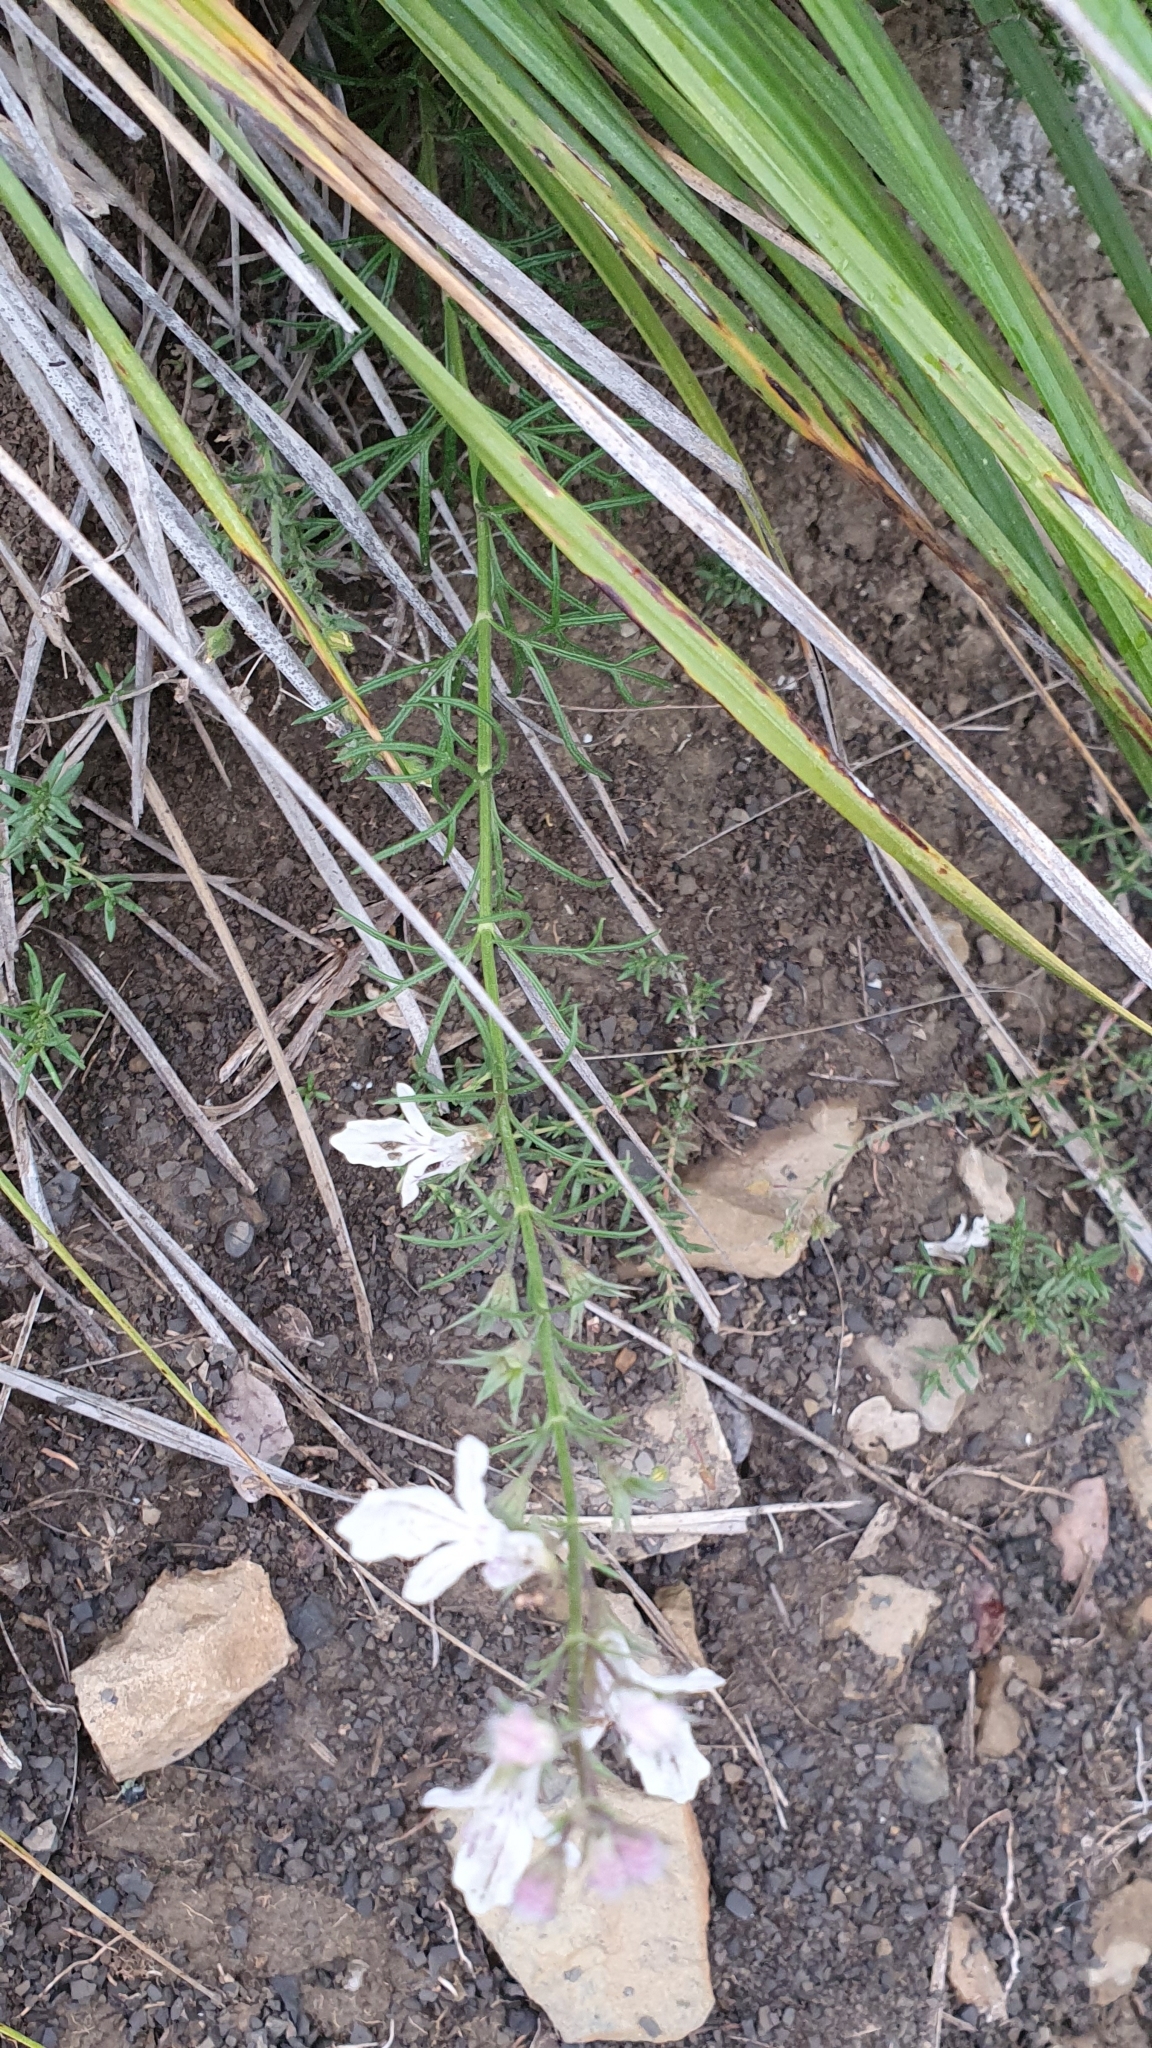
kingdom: Plantae
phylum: Tracheophyta
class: Magnoliopsida
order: Lamiales
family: Lamiaceae
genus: Teucrium
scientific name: Teucrium pseudochamaepitys
